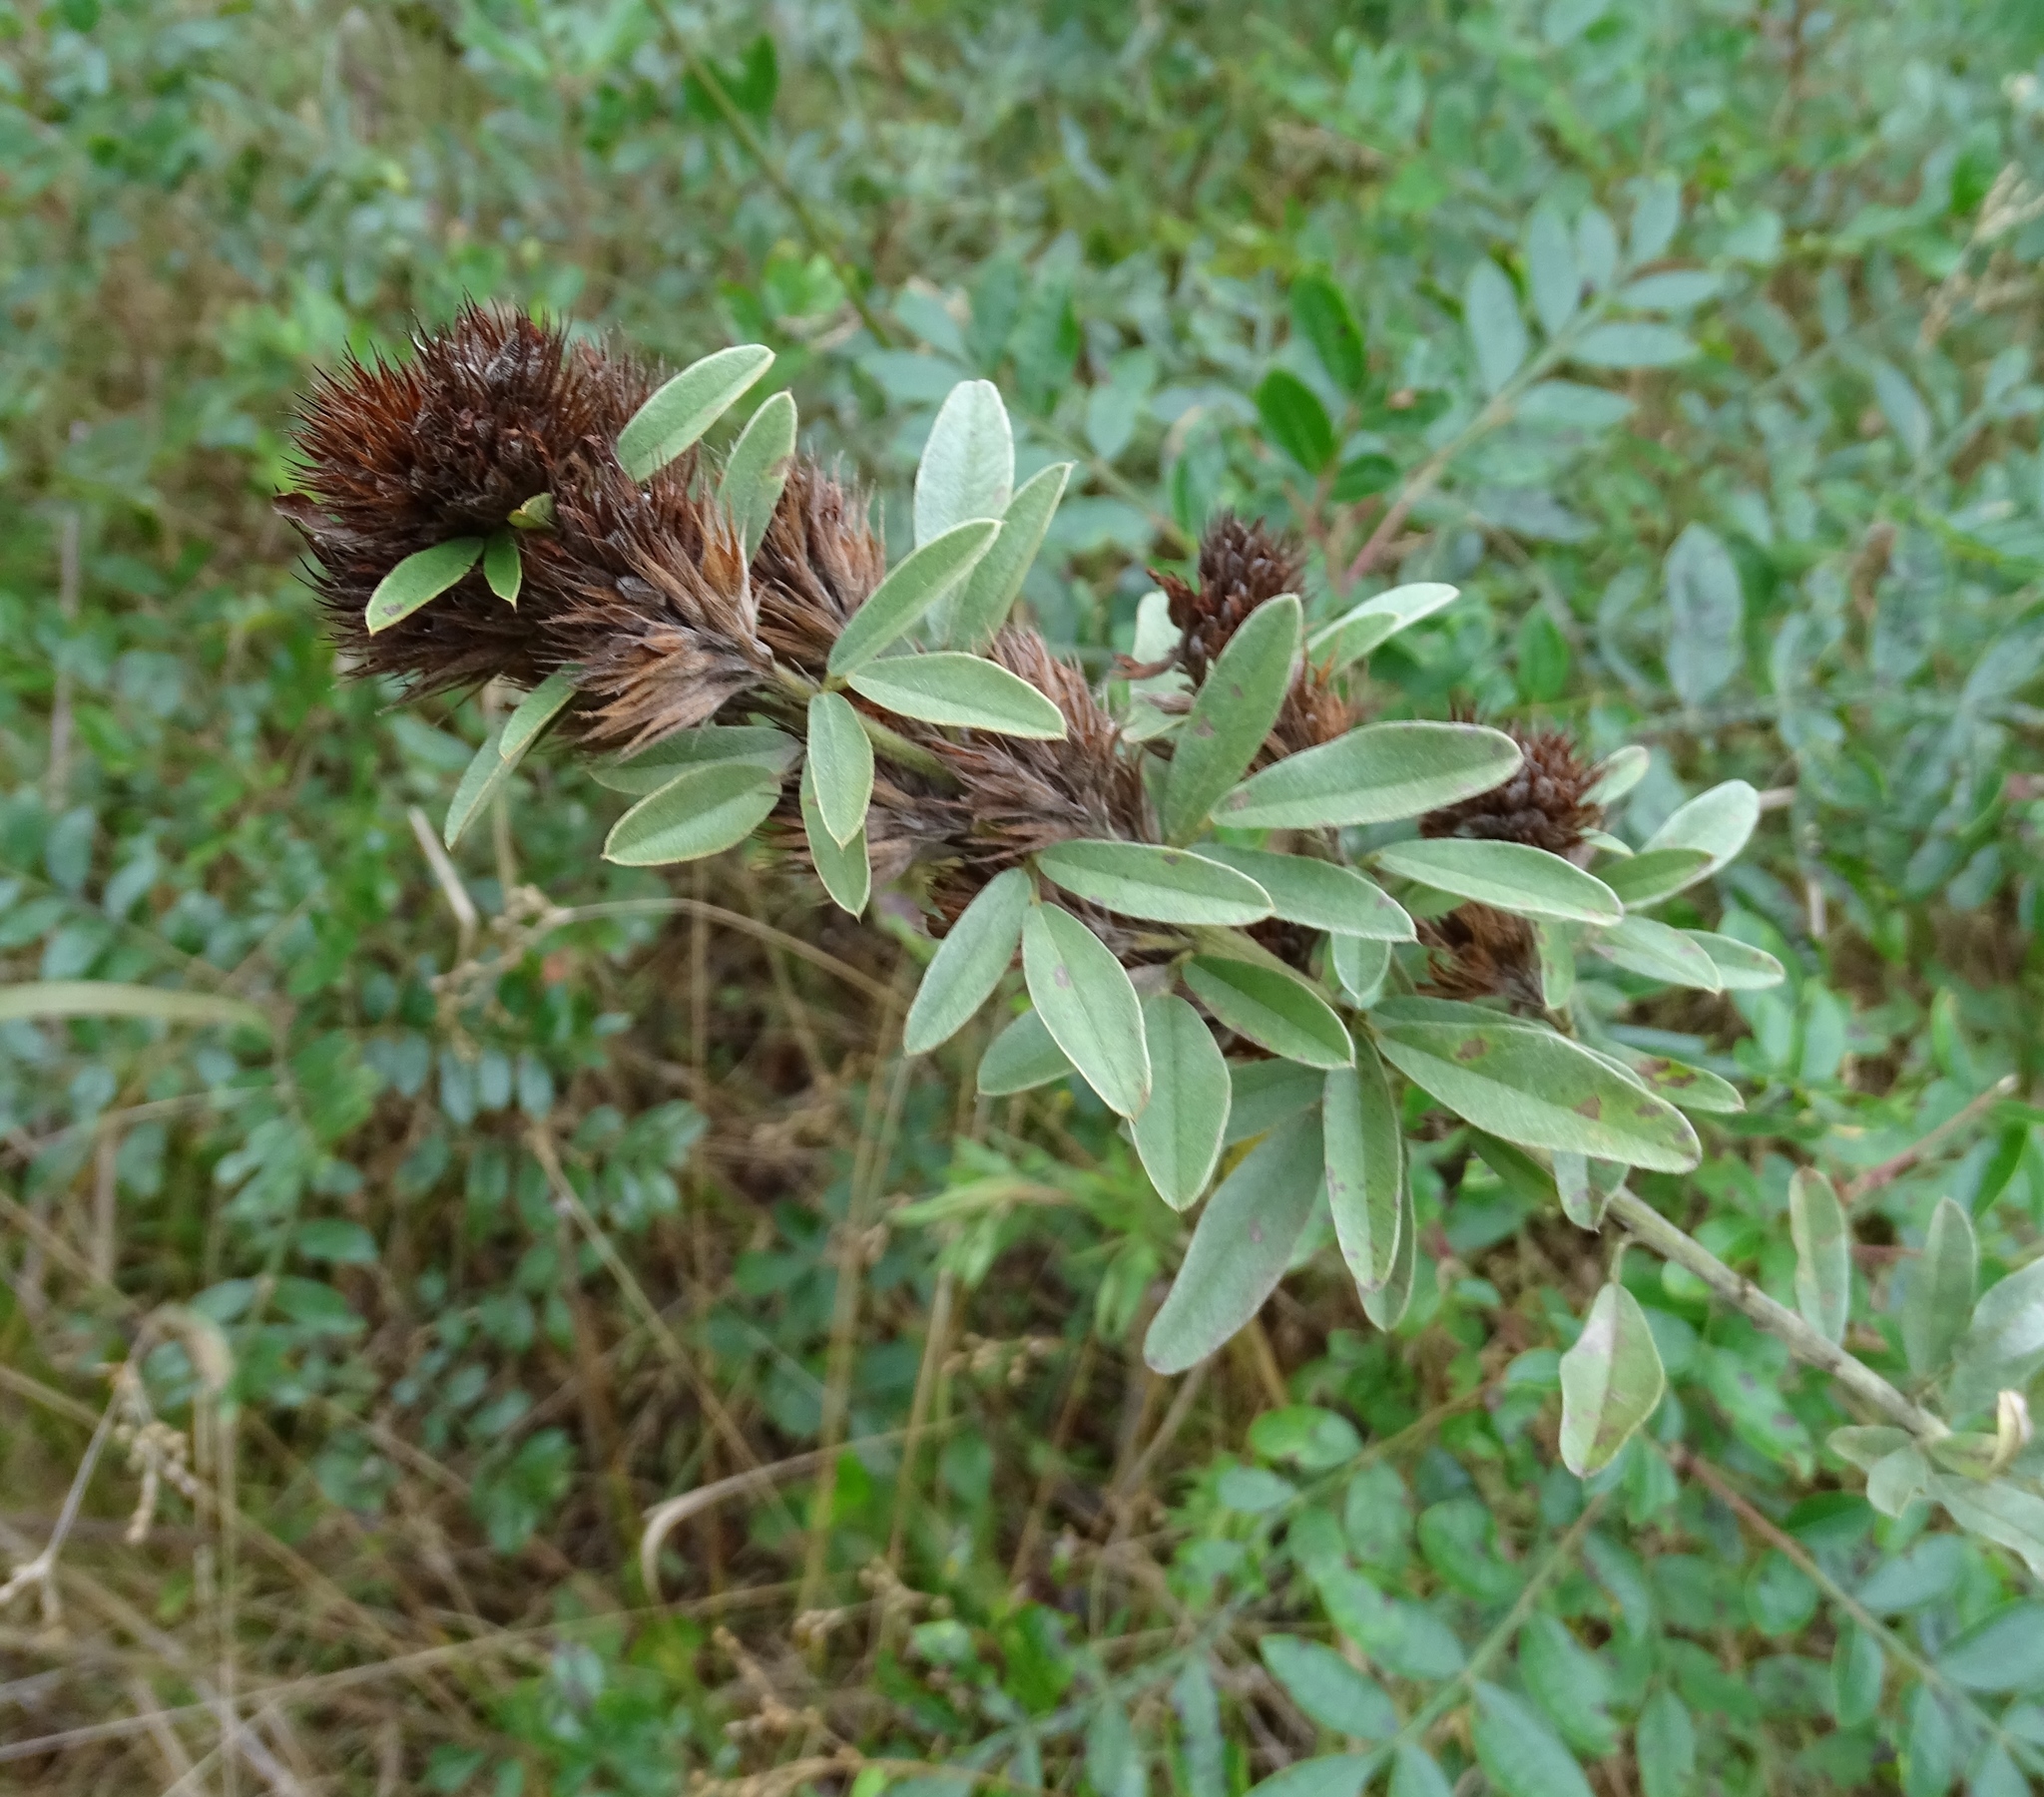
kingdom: Plantae
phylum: Tracheophyta
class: Magnoliopsida
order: Fabales
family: Fabaceae
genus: Lespedeza
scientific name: Lespedeza capitata
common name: Dusty clover
